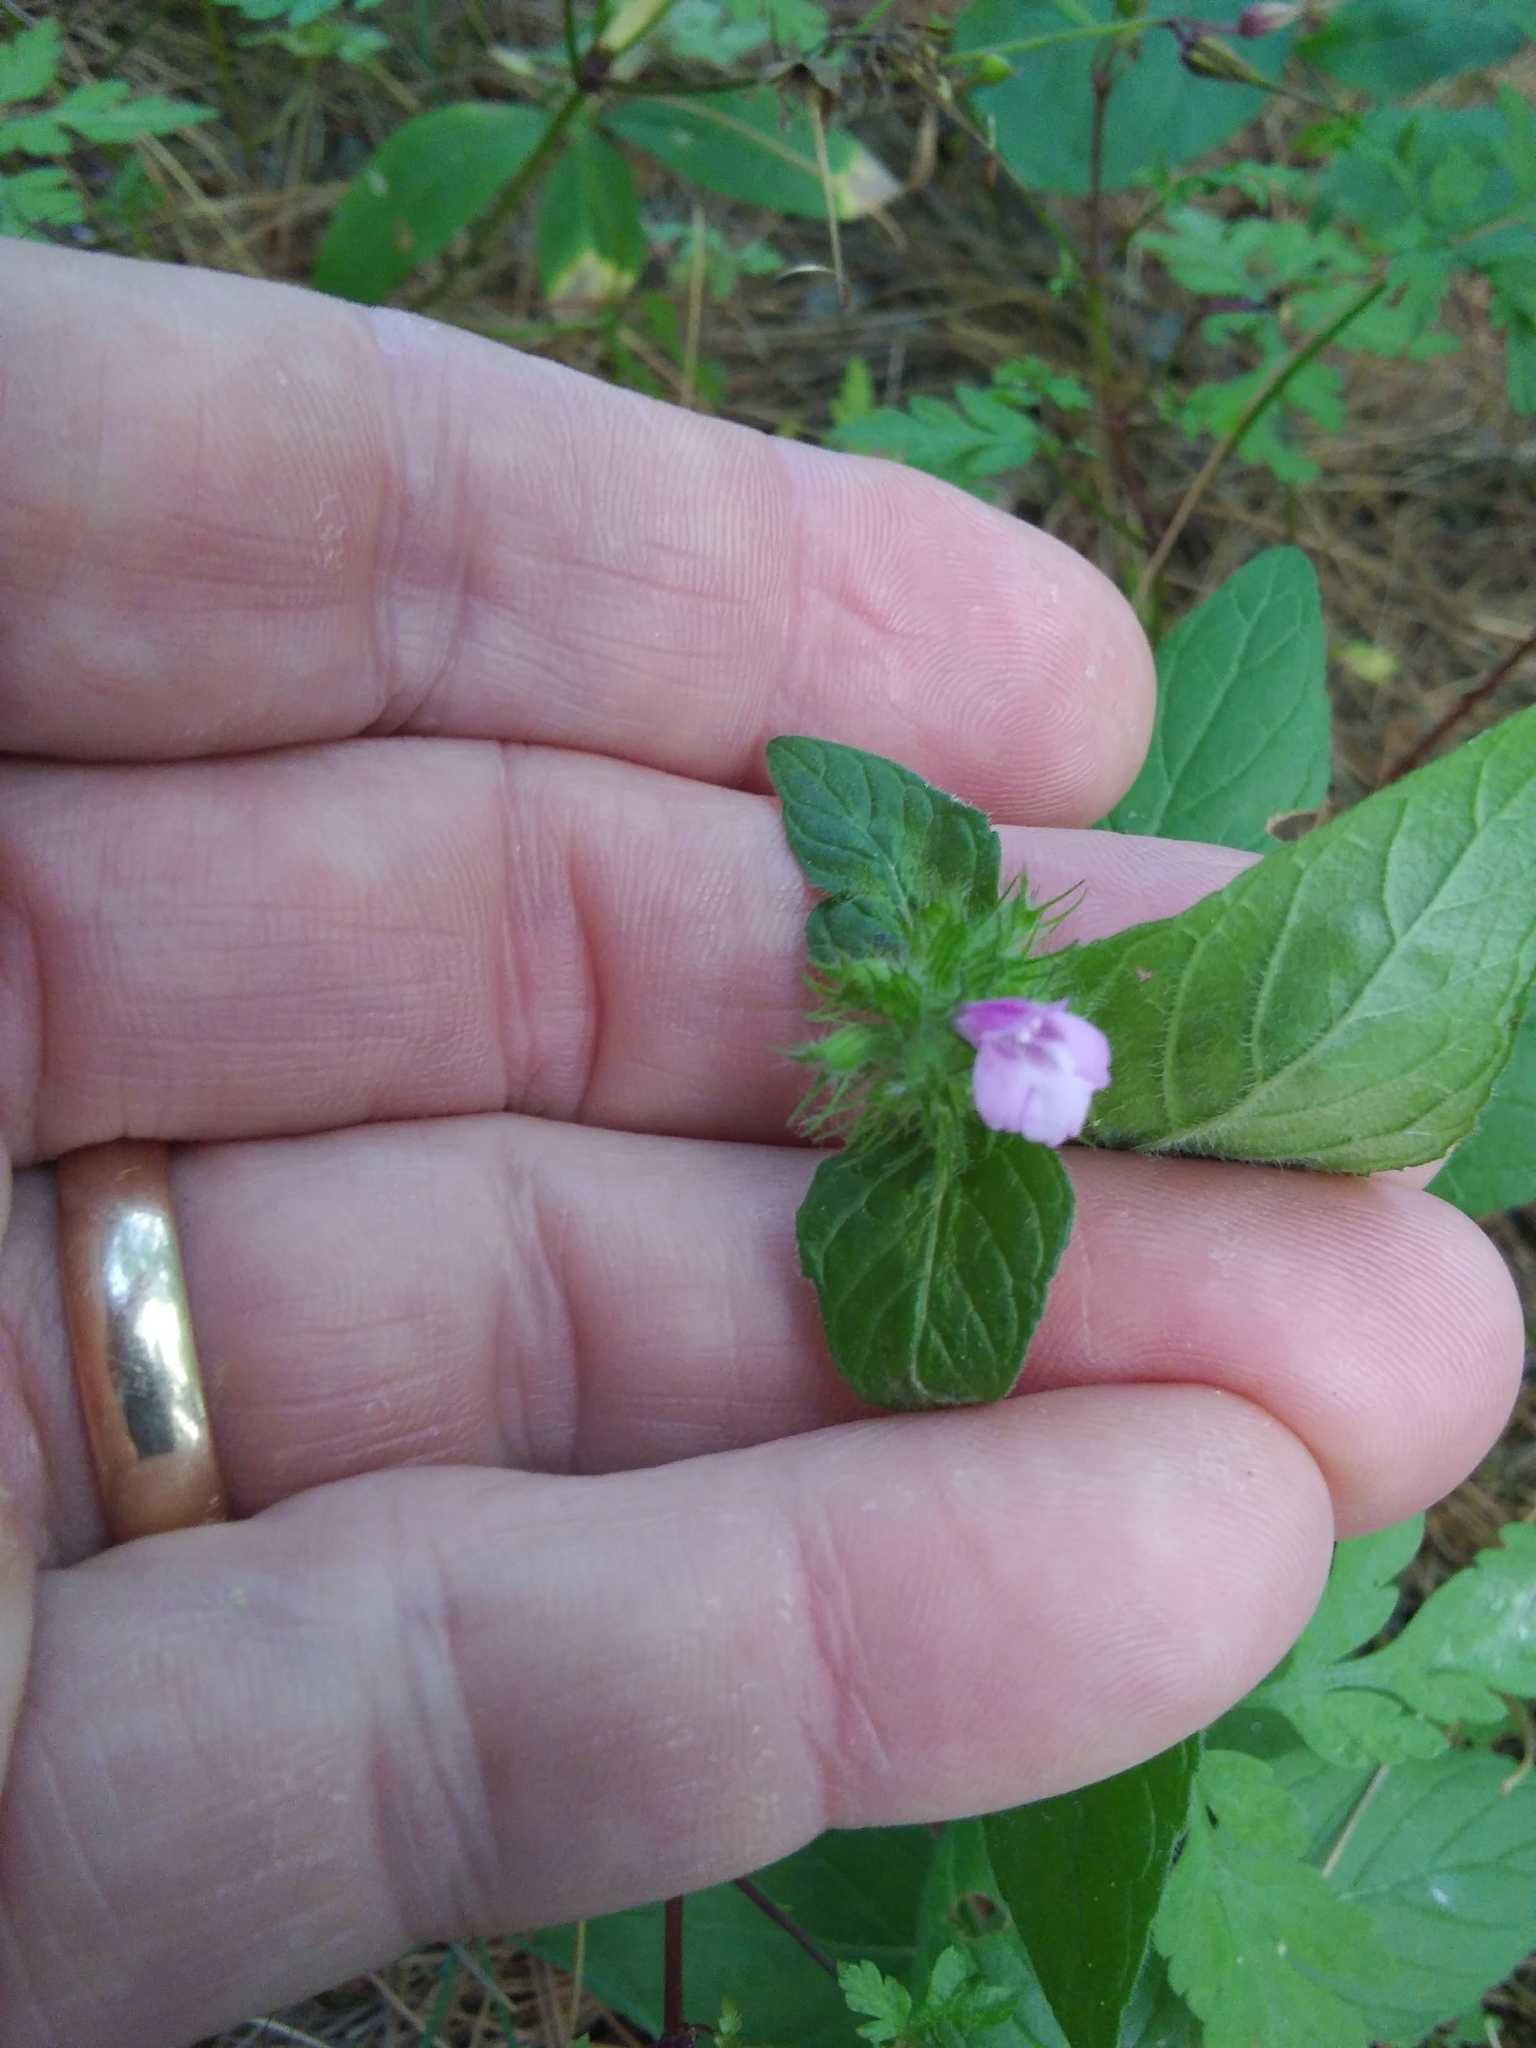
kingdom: Plantae
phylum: Tracheophyta
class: Magnoliopsida
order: Lamiales
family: Lamiaceae
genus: Clinopodium
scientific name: Clinopodium vulgare
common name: Wild basil
